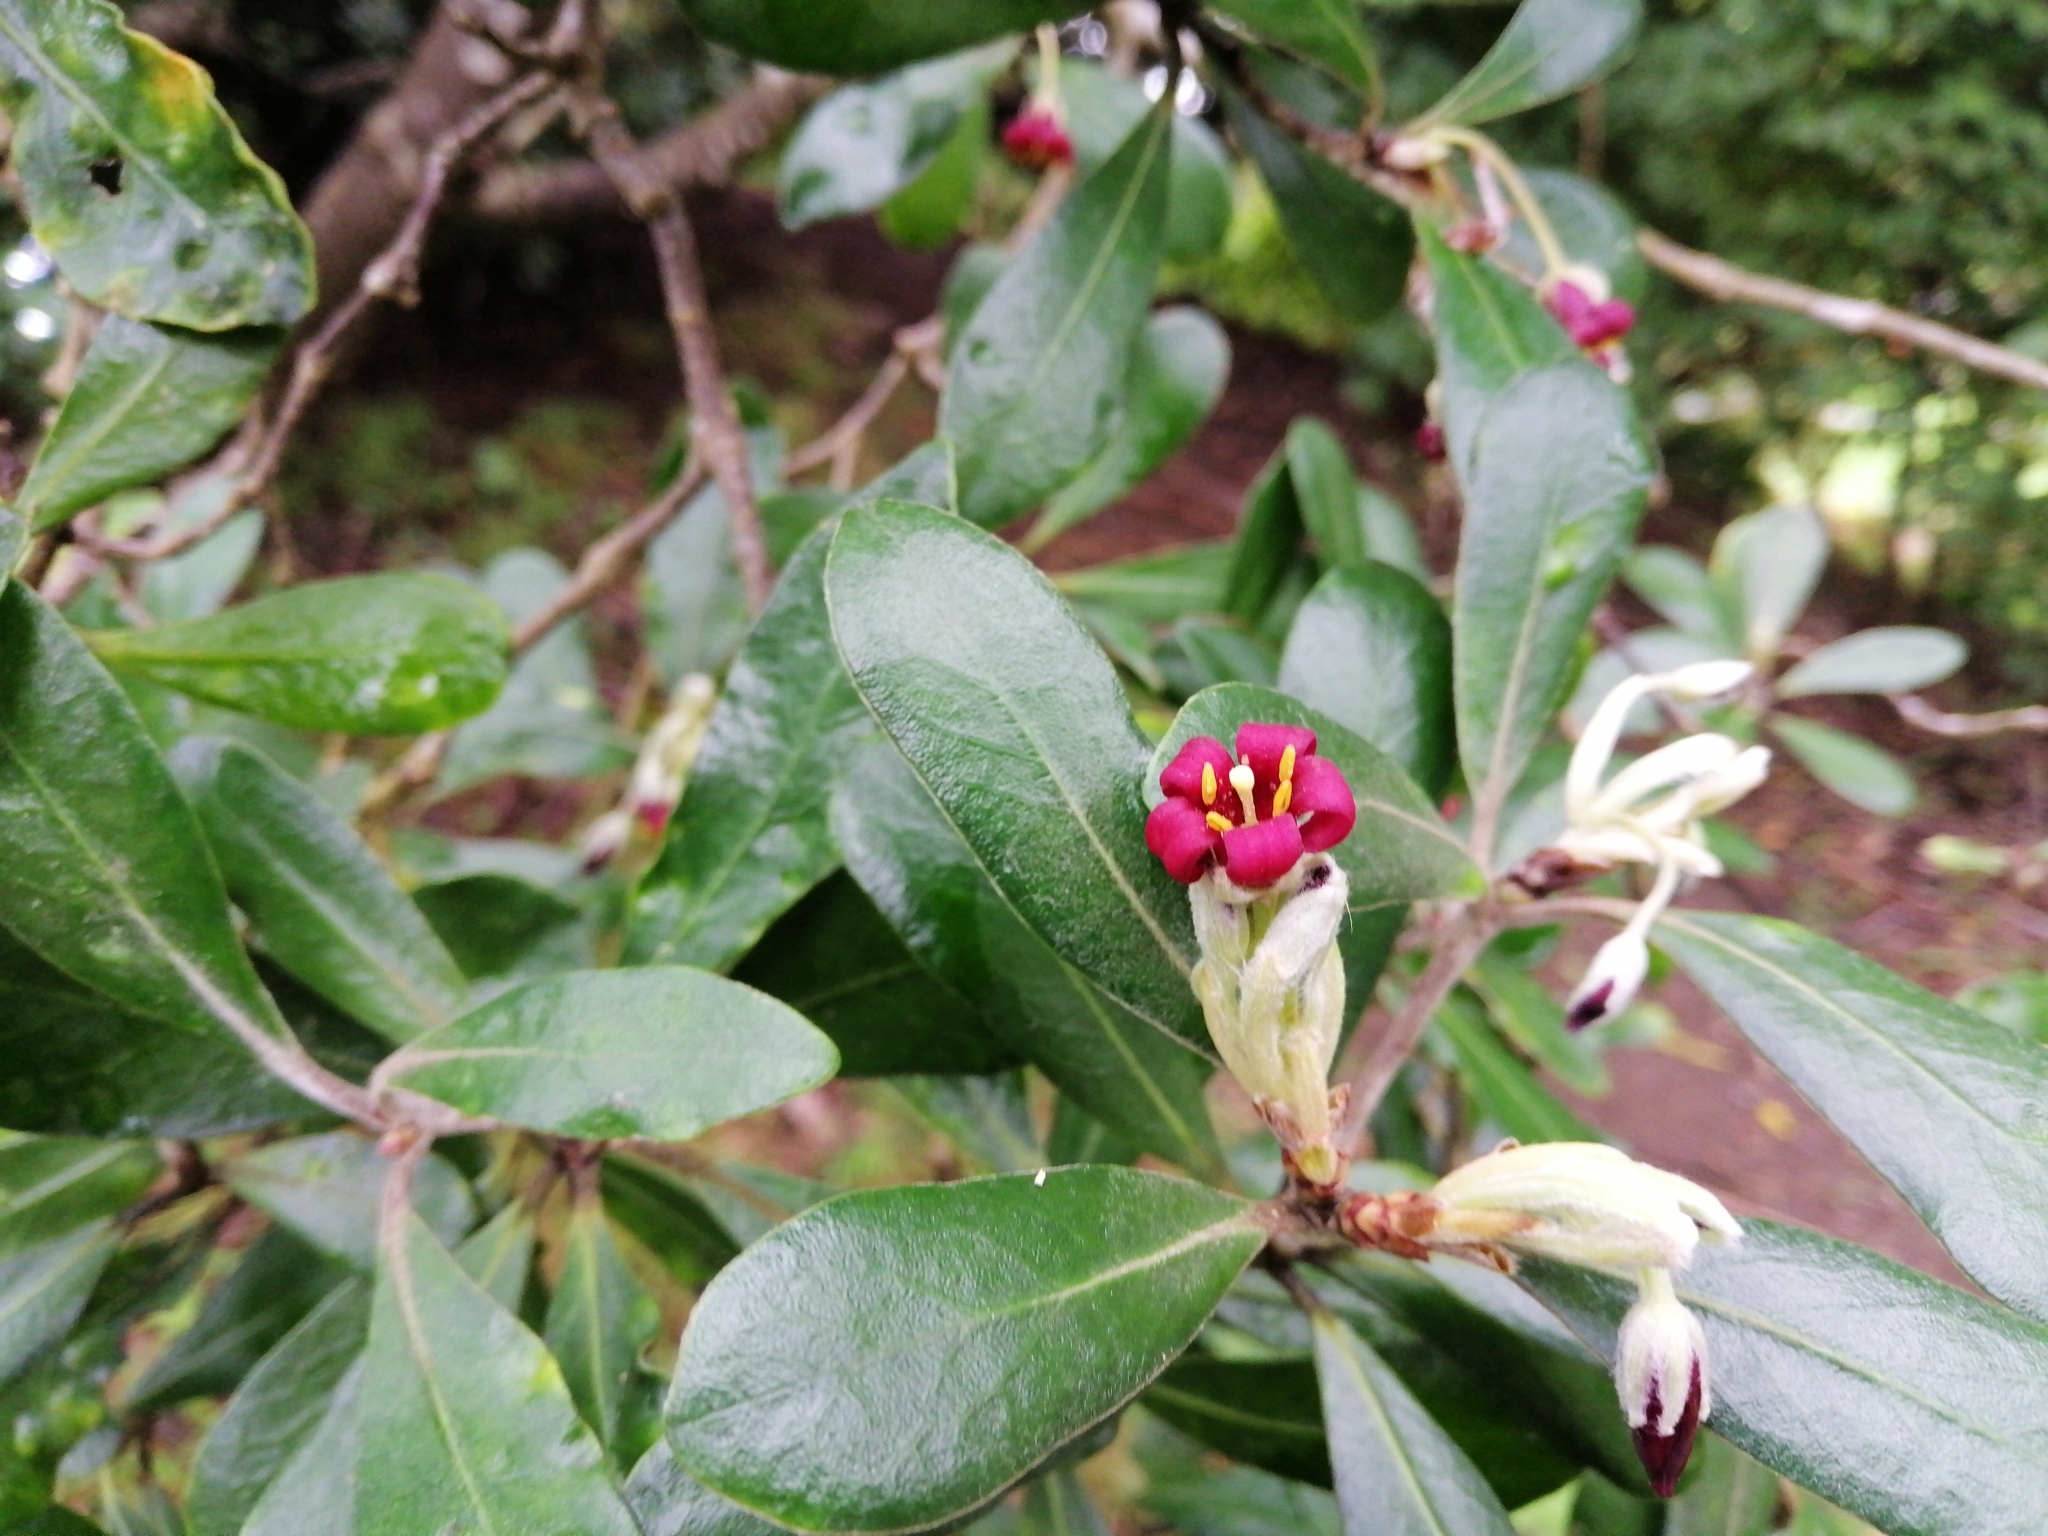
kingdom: Plantae
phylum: Tracheophyta
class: Magnoliopsida
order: Apiales
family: Pittosporaceae
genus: Pittosporum
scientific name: Pittosporum crassifolium
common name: Karo
